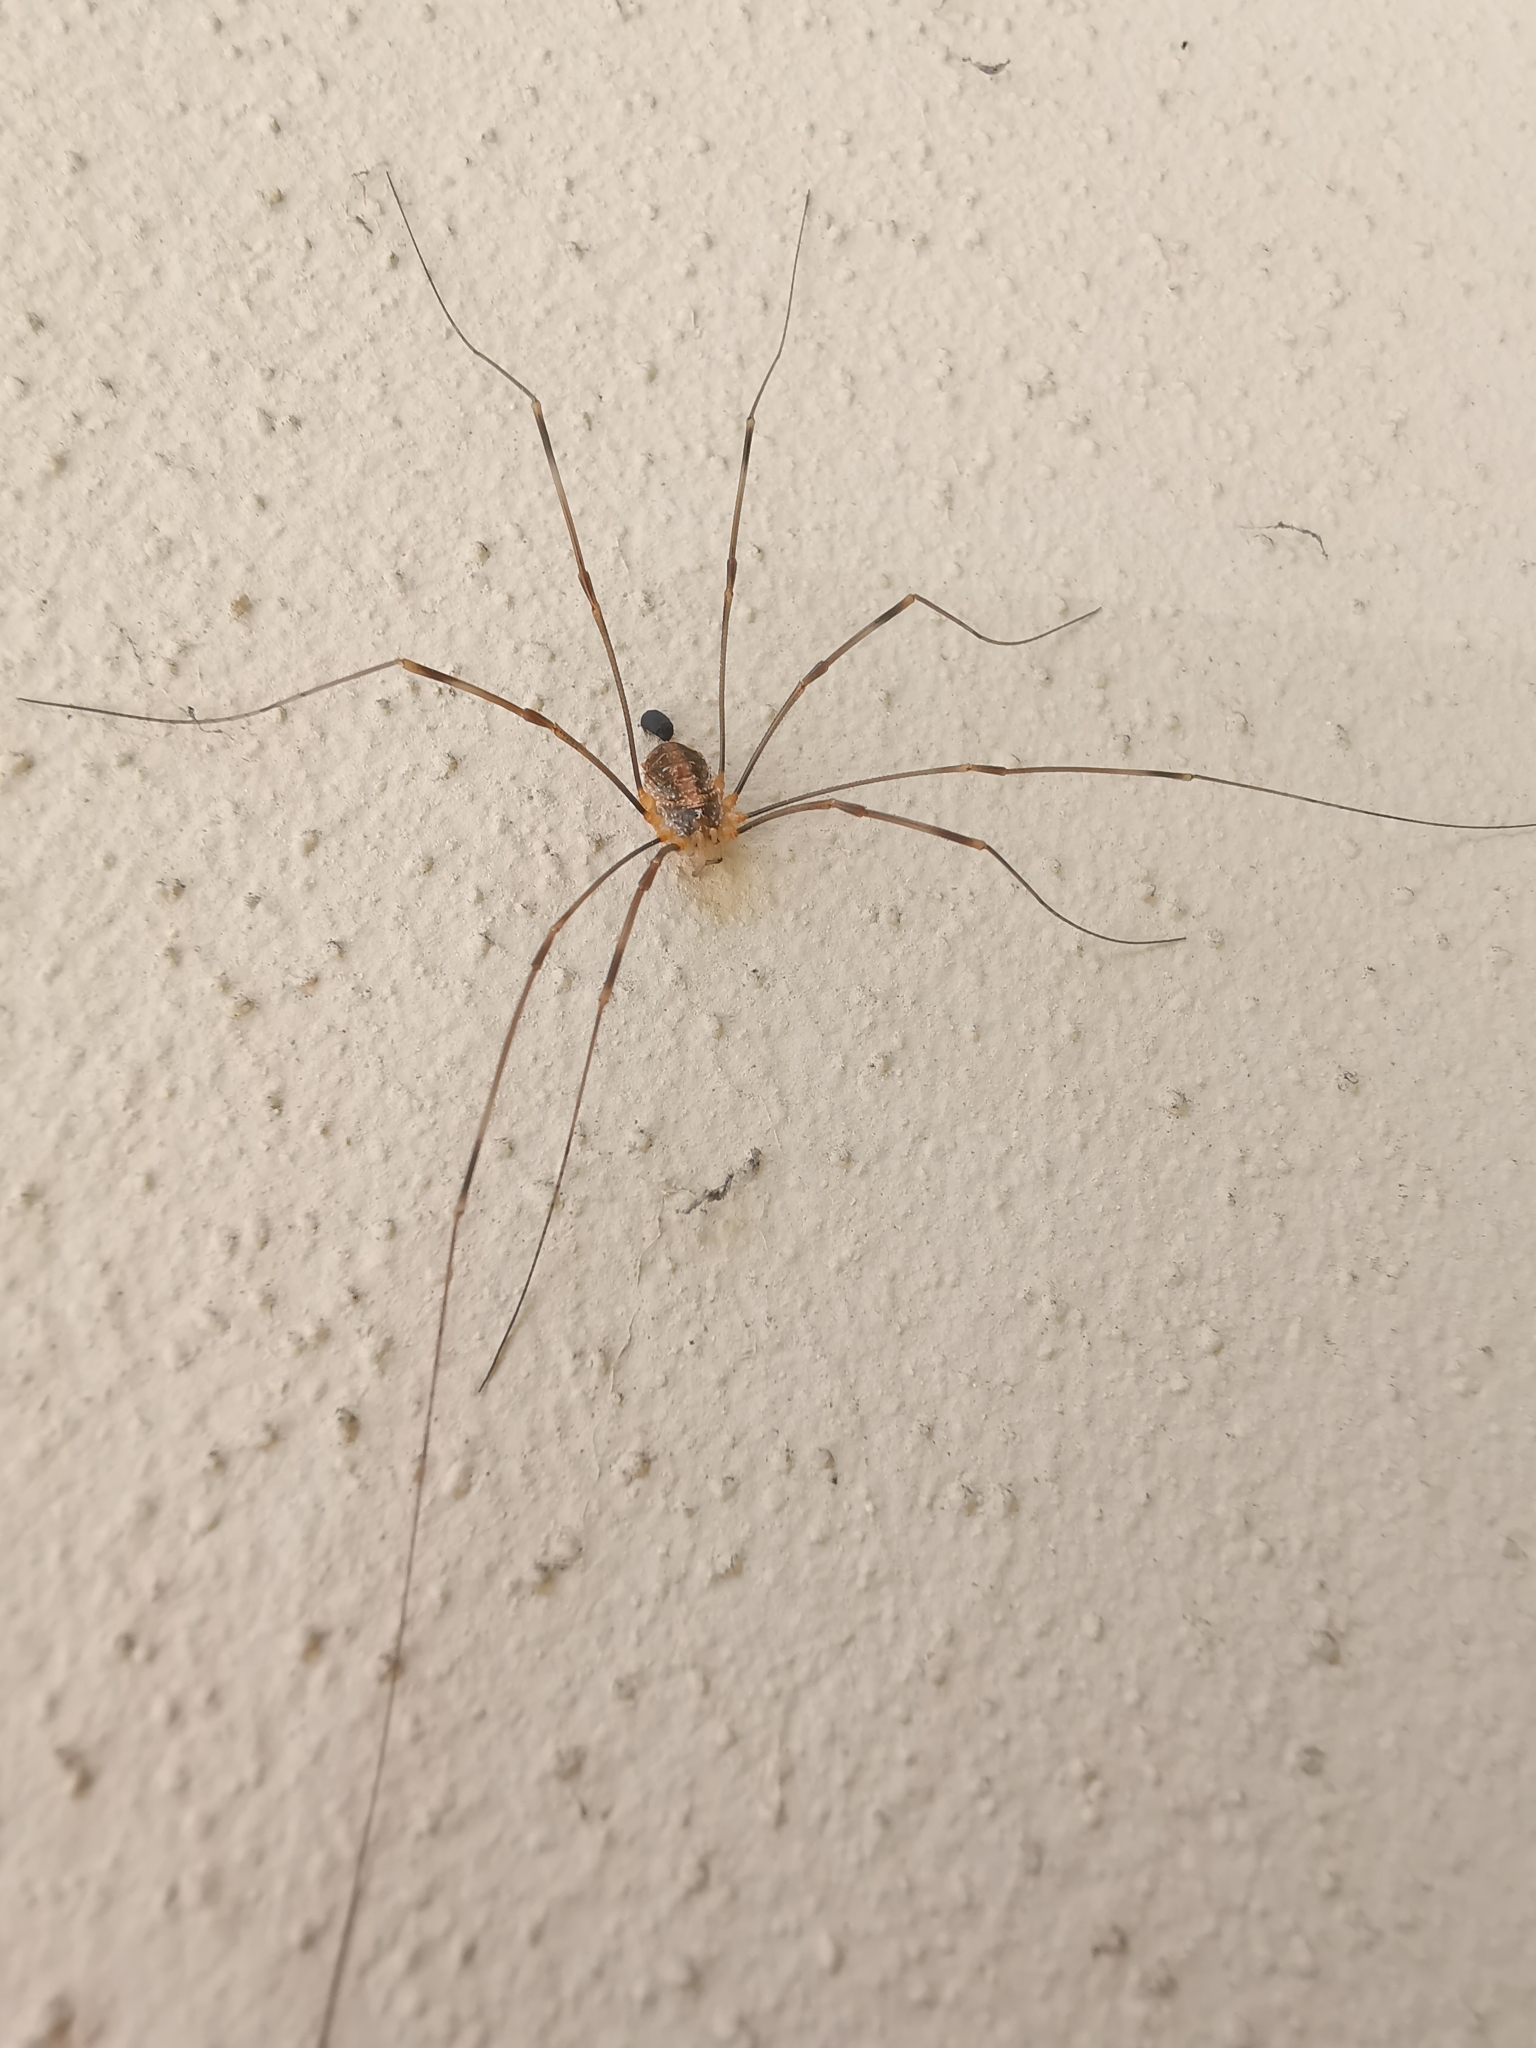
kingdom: Animalia
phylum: Arthropoda
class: Arachnida
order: Opiliones
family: Phalangiidae
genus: Opilio
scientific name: Opilio canestrinii
